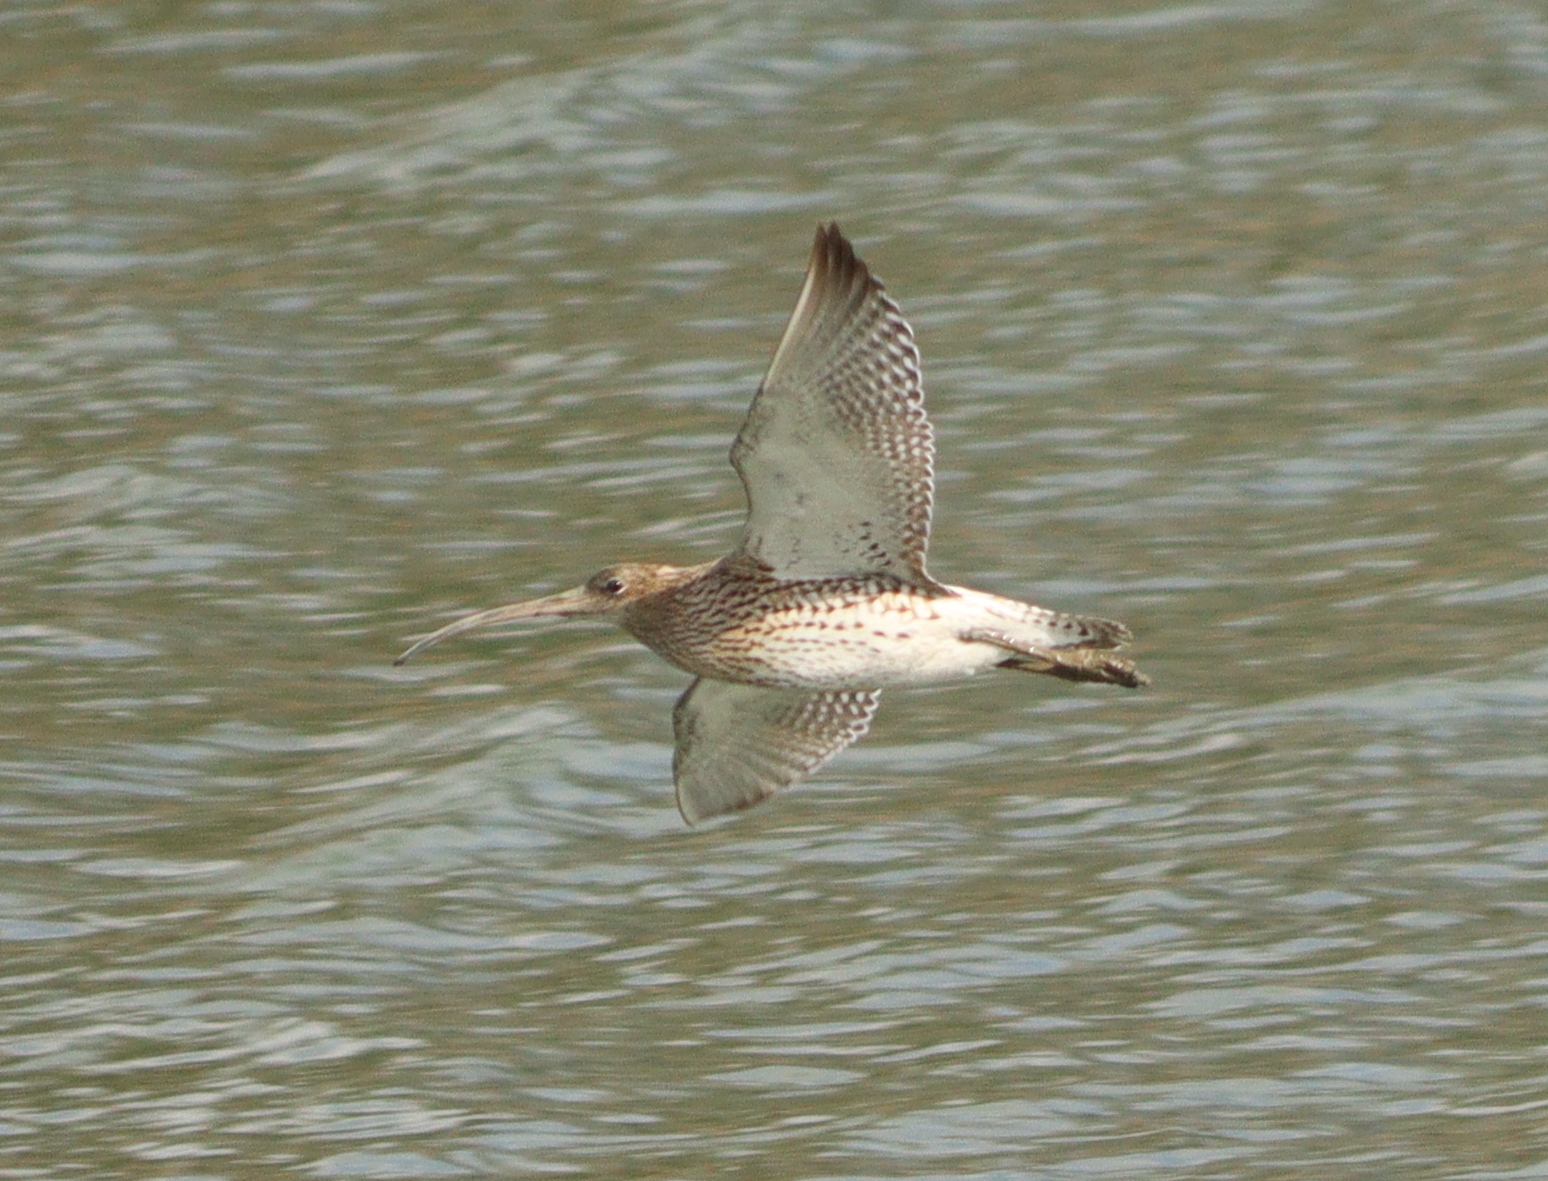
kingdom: Animalia
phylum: Chordata
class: Aves
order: Charadriiformes
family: Scolopacidae
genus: Numenius
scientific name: Numenius arquata
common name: Eurasian curlew
